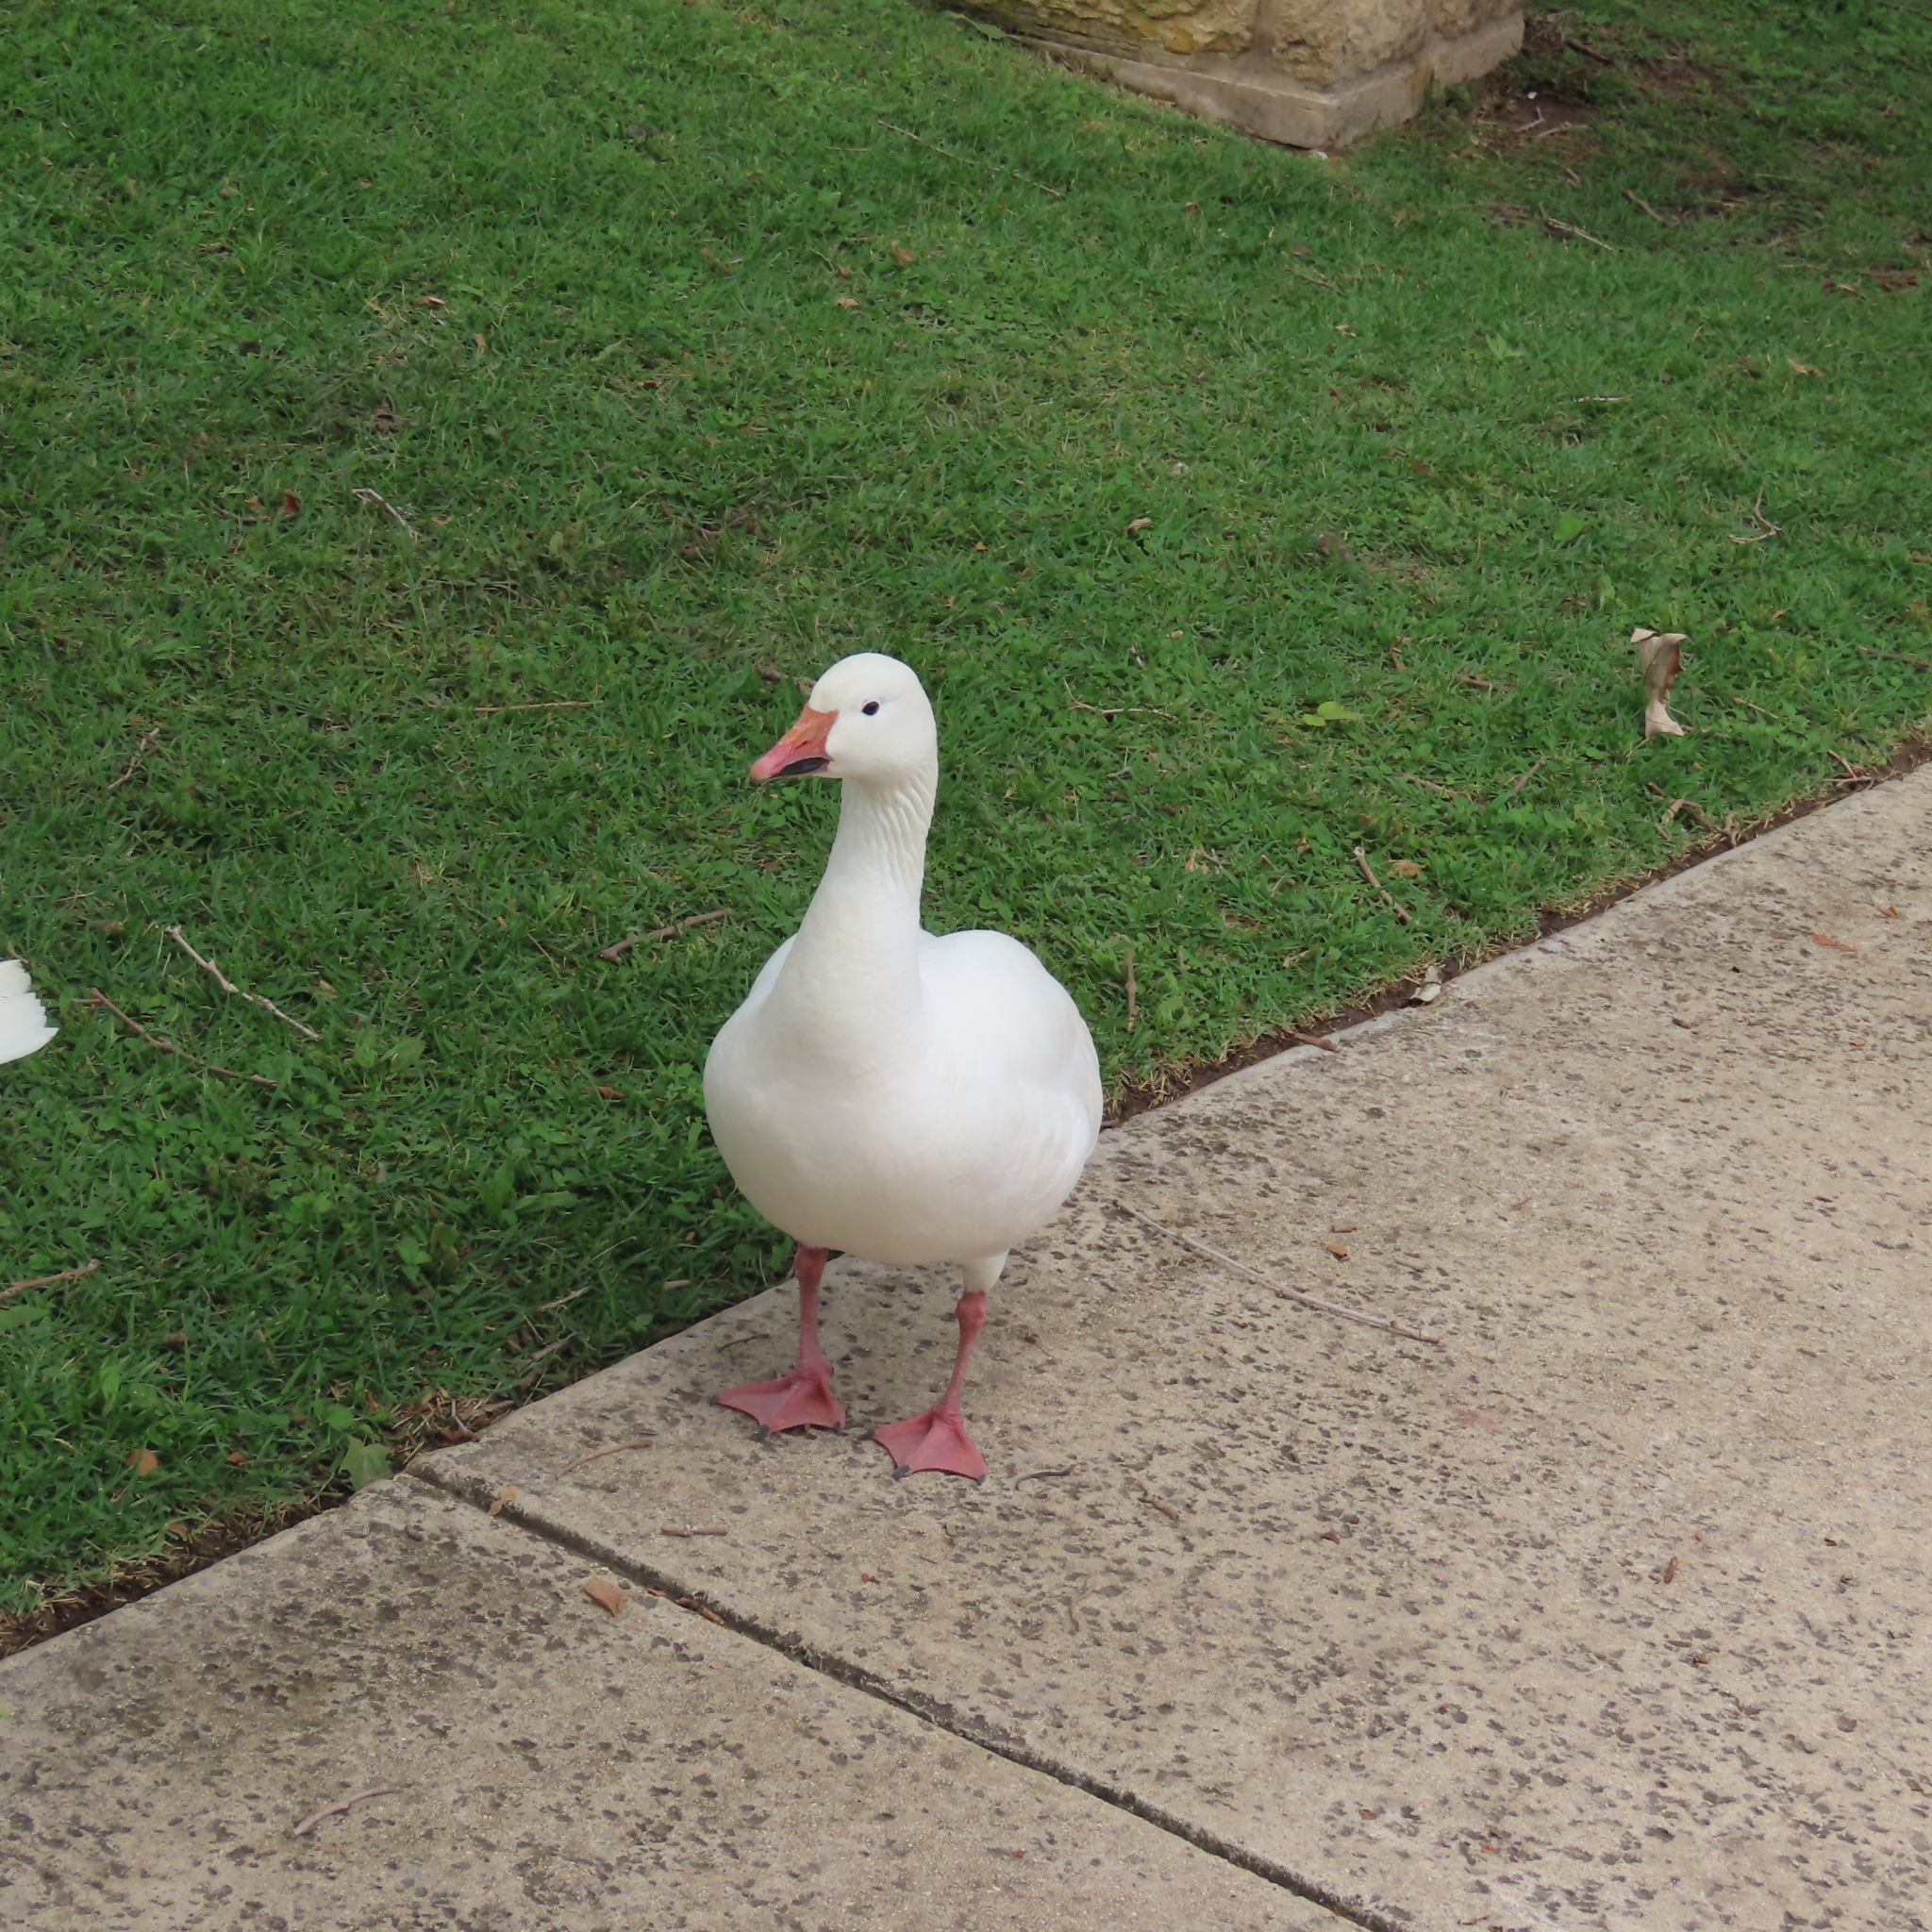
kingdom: Animalia
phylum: Chordata
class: Aves
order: Anseriformes
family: Anatidae
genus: Anser
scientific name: Anser caerulescens
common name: Snow goose
